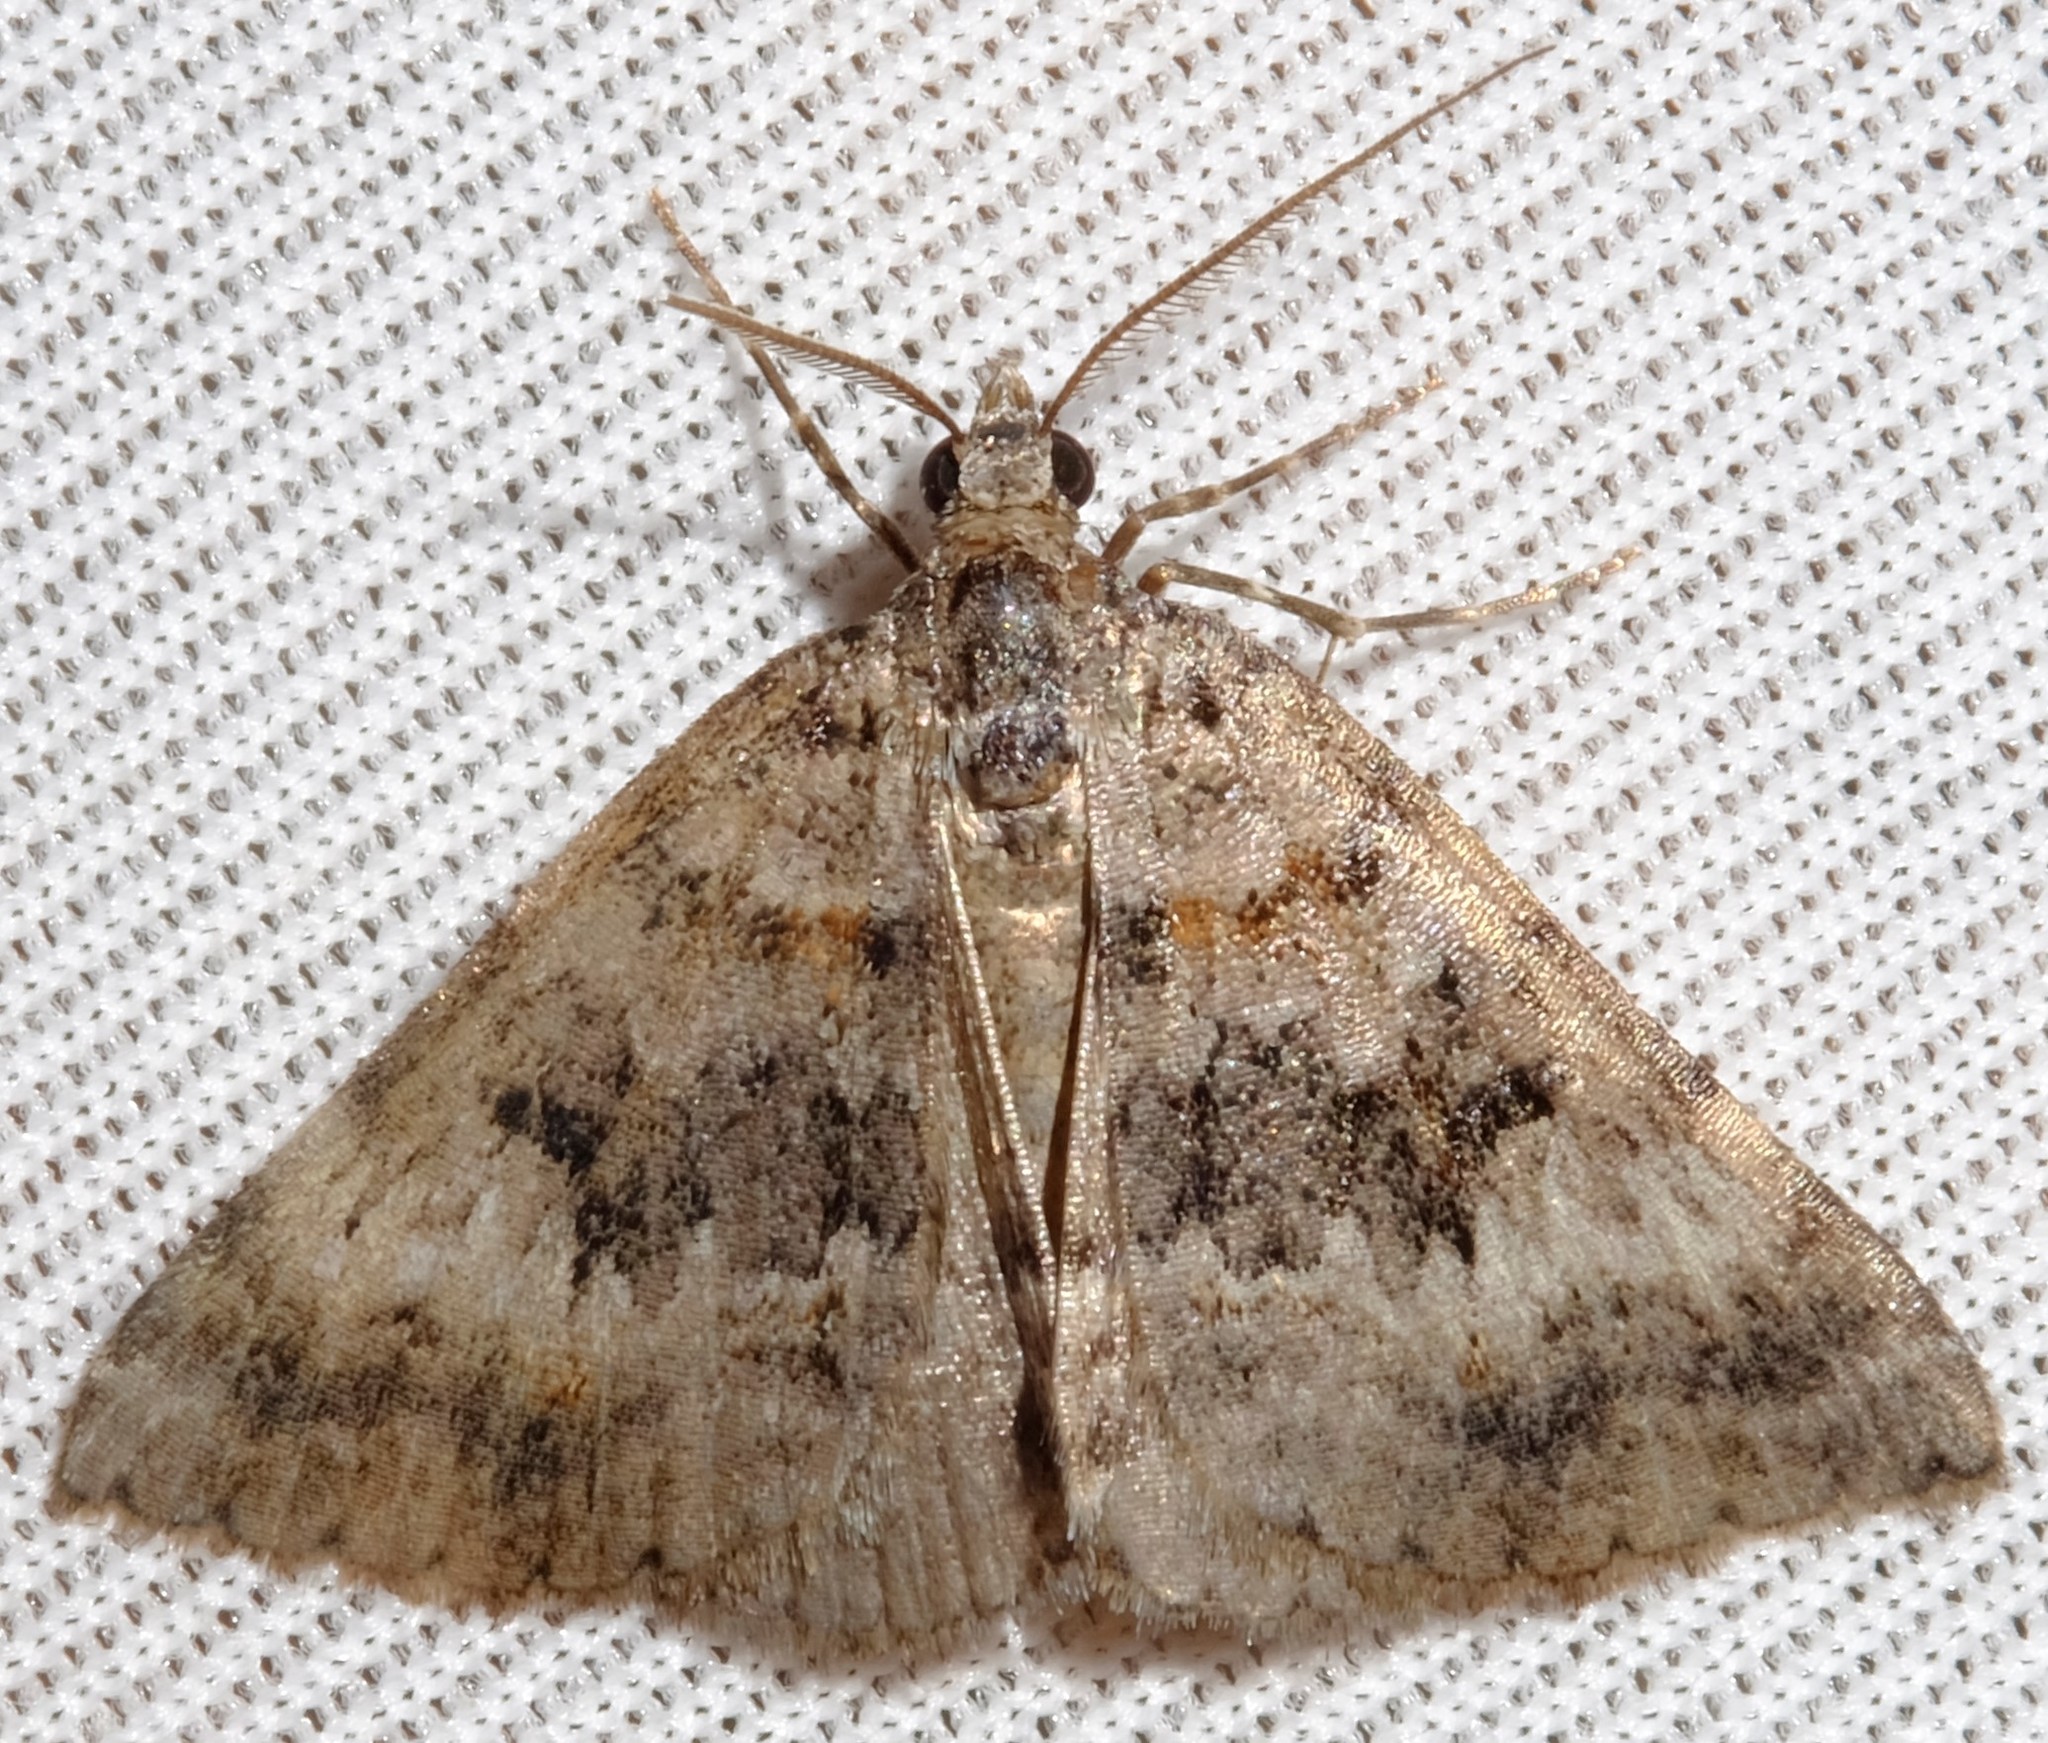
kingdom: Animalia
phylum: Arthropoda
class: Insecta
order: Lepidoptera
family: Geometridae
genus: Dichromodes
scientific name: Dichromodes longidens
